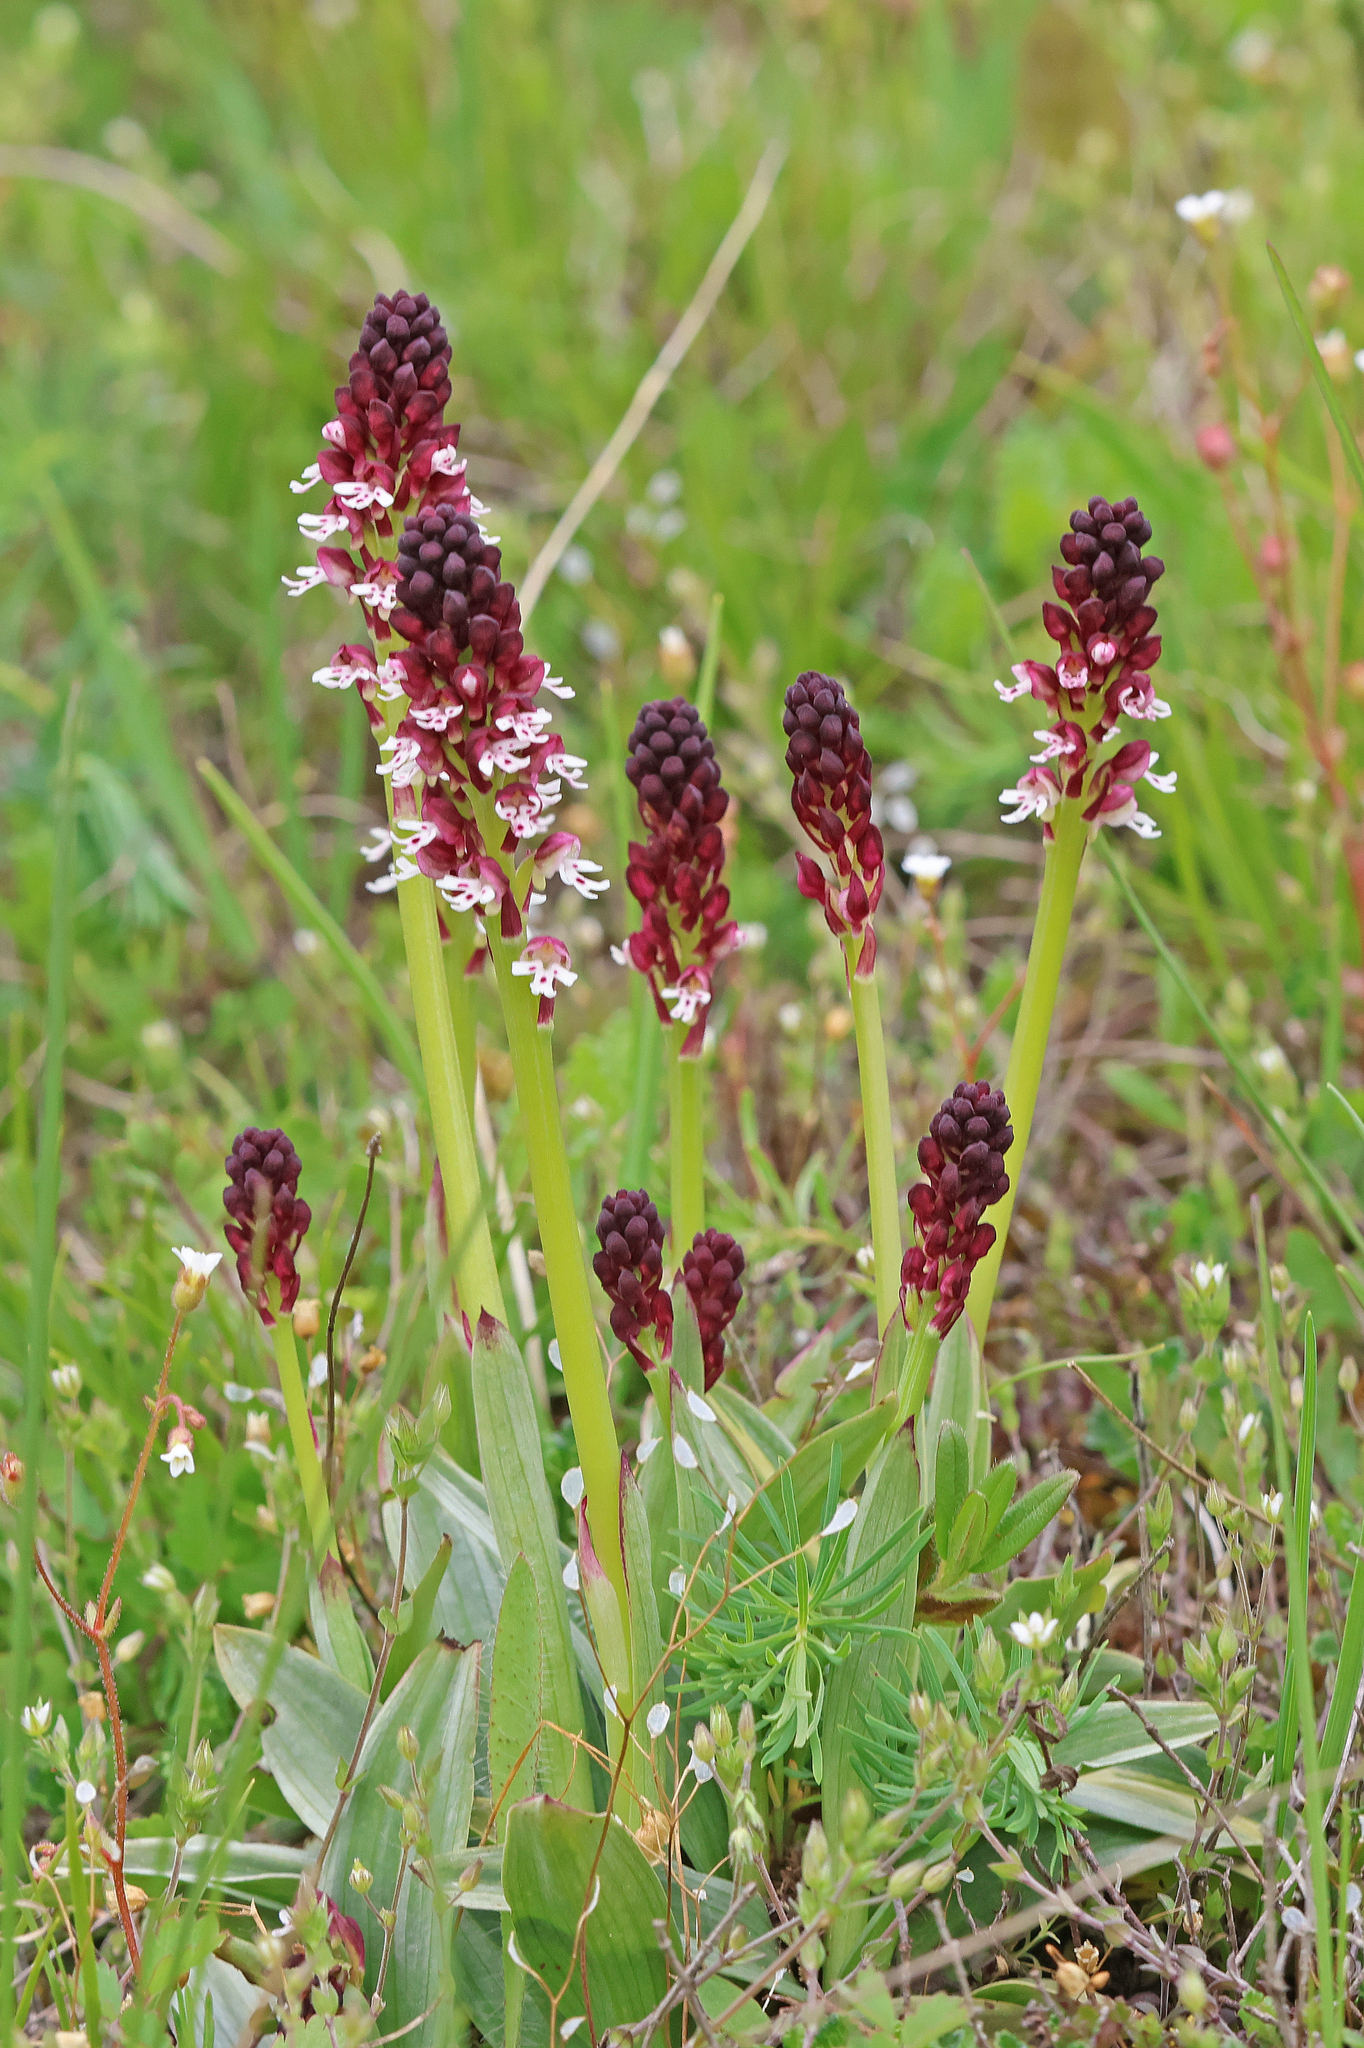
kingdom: Plantae
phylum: Tracheophyta
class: Liliopsida
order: Asparagales
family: Orchidaceae
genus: Neotinea
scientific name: Neotinea ustulata
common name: Burnt orchid
